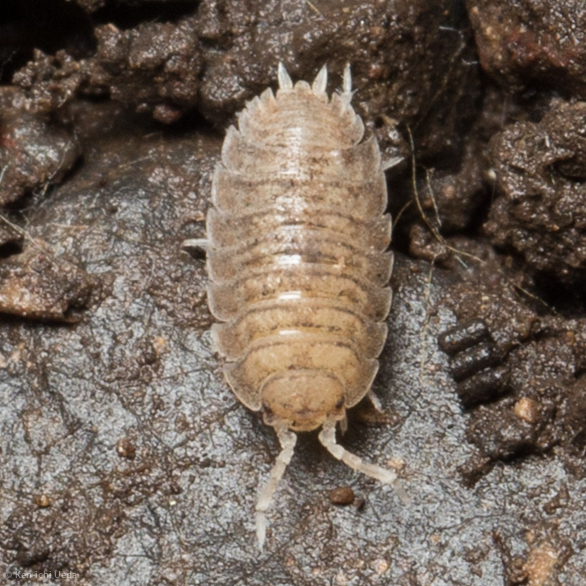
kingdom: Animalia
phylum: Arthropoda
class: Malacostraca
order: Isopoda
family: Porcellionidae
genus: Porcellio
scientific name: Porcellio dilatatus
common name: Isopod
